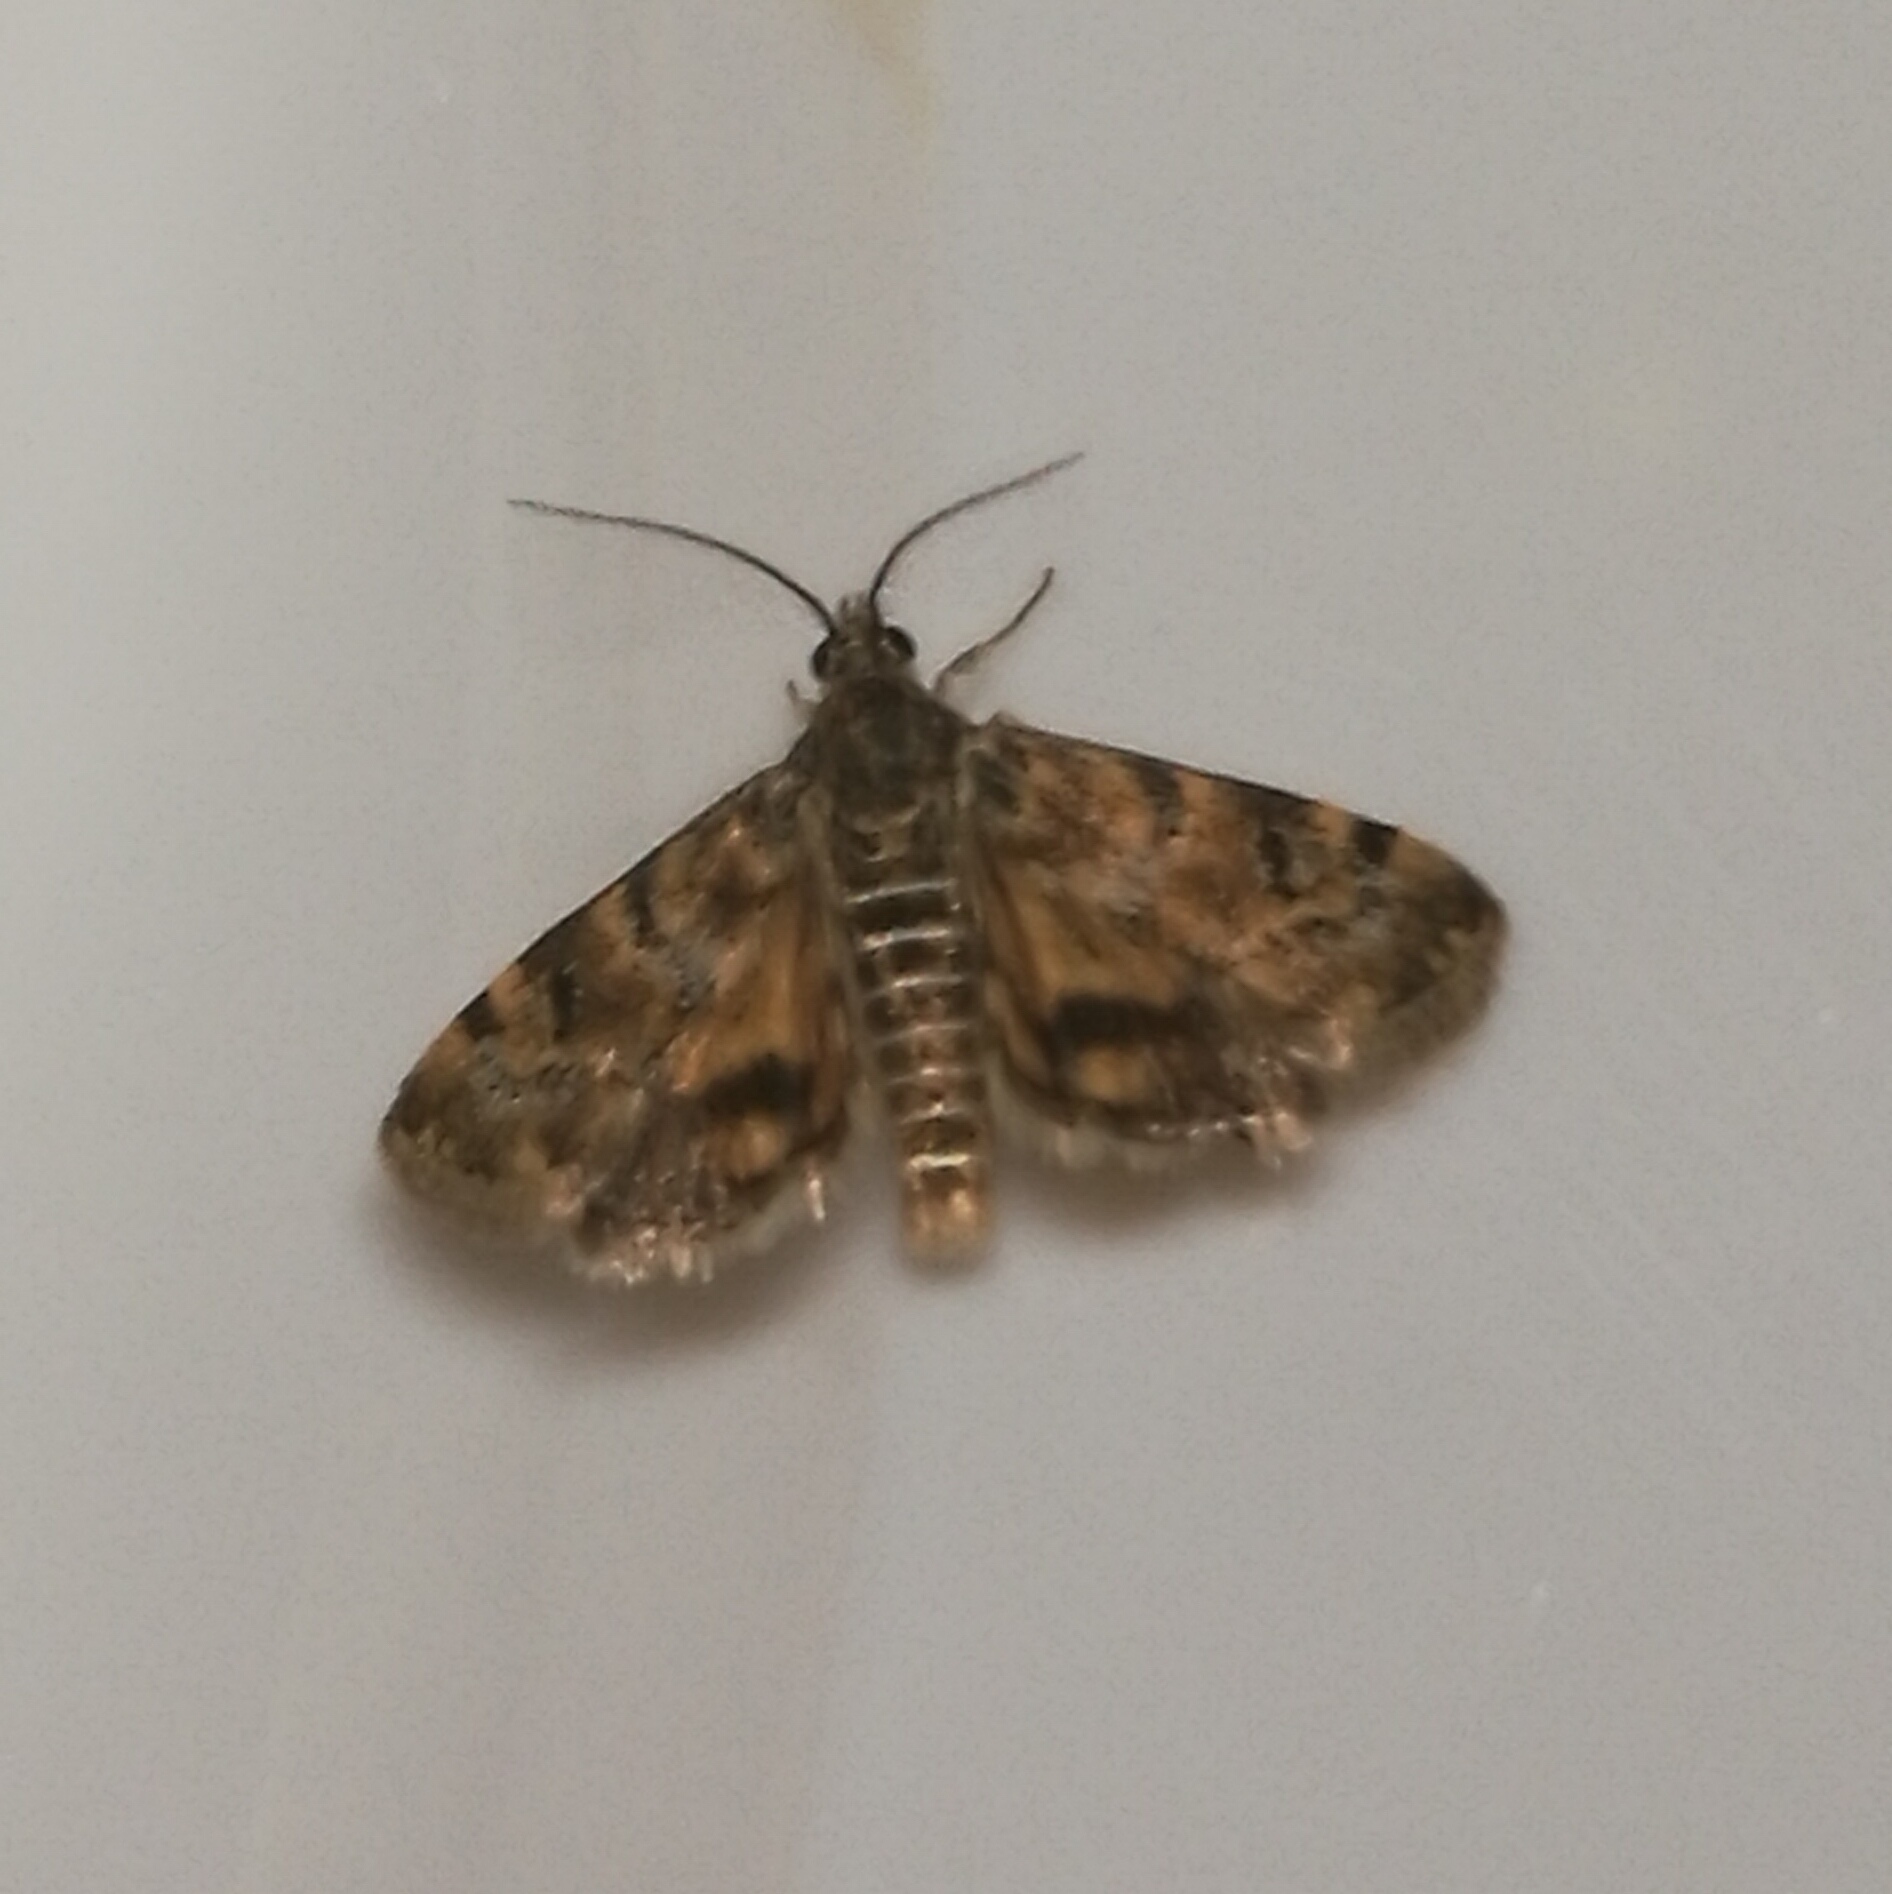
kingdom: Animalia
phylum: Arthropoda
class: Insecta
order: Lepidoptera
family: Crambidae
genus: Noctuelia
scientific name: Noctuelia Aporodes floralis
